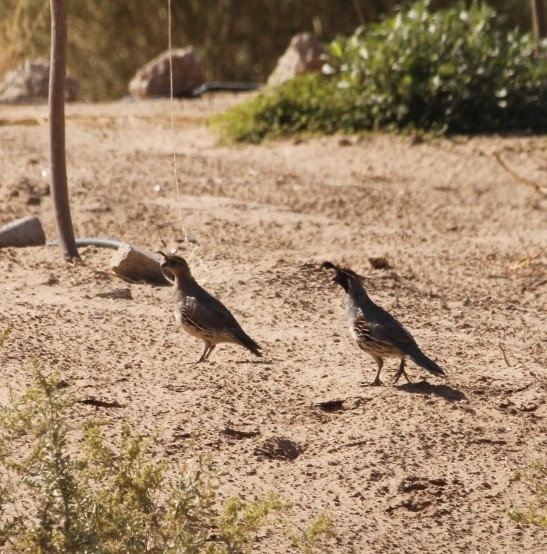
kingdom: Animalia
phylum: Chordata
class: Aves
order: Galliformes
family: Odontophoridae
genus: Callipepla
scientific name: Callipepla gambelii
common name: Gambel's quail
